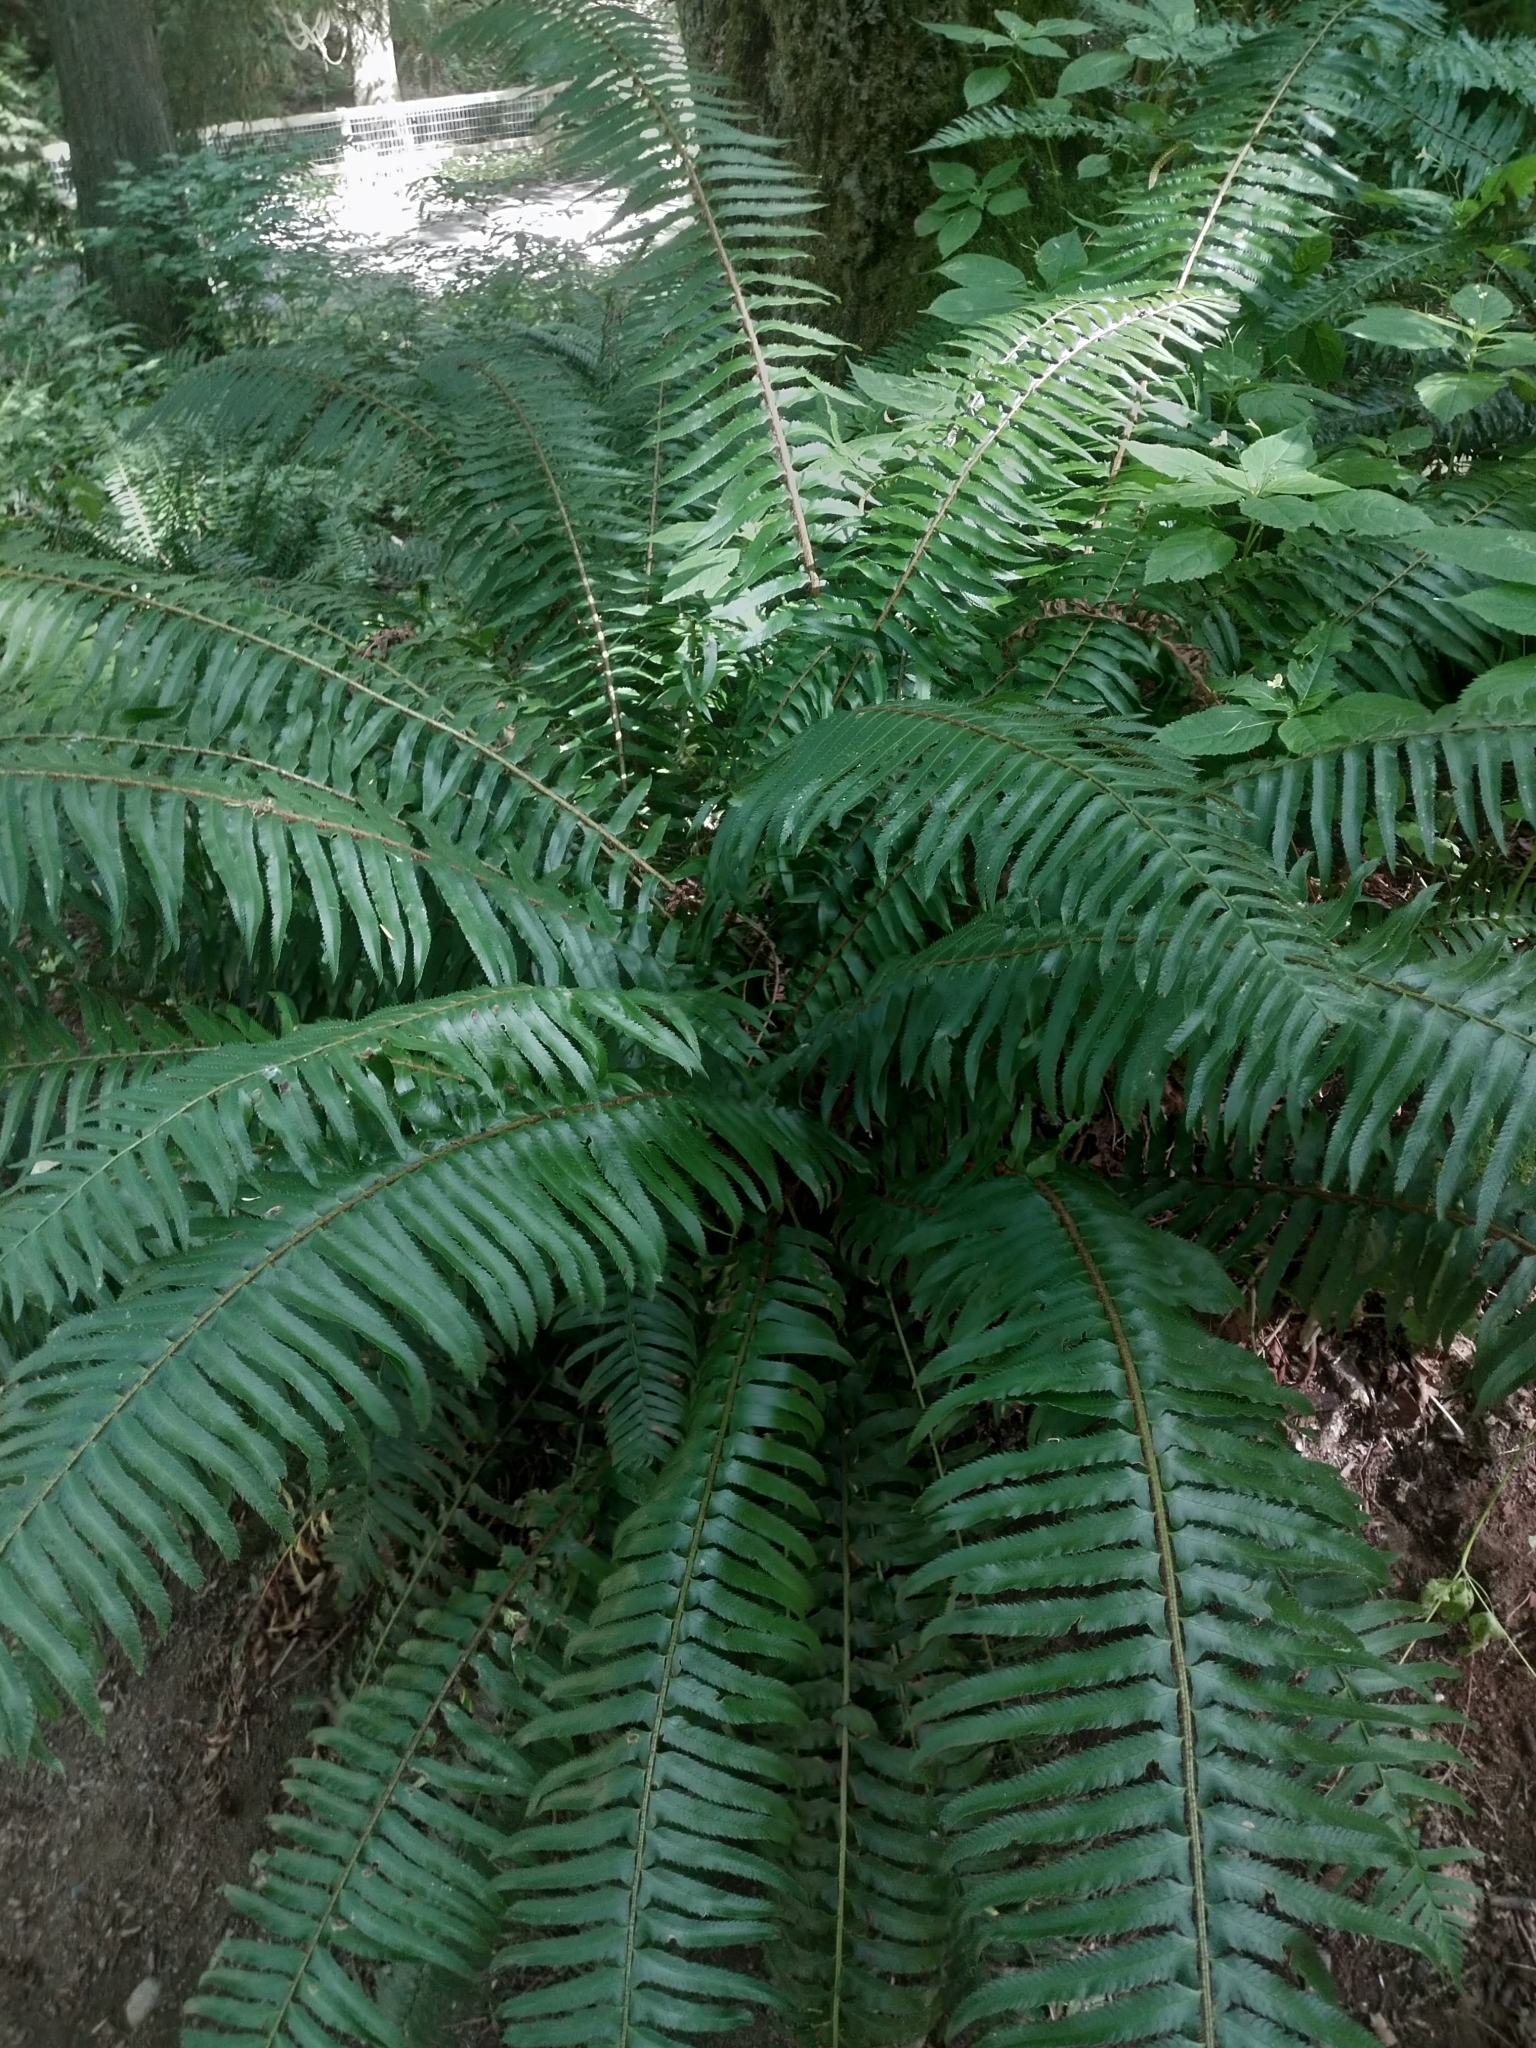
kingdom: Plantae
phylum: Tracheophyta
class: Polypodiopsida
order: Polypodiales
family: Dryopteridaceae
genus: Polystichum
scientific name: Polystichum munitum
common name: Western sword-fern
